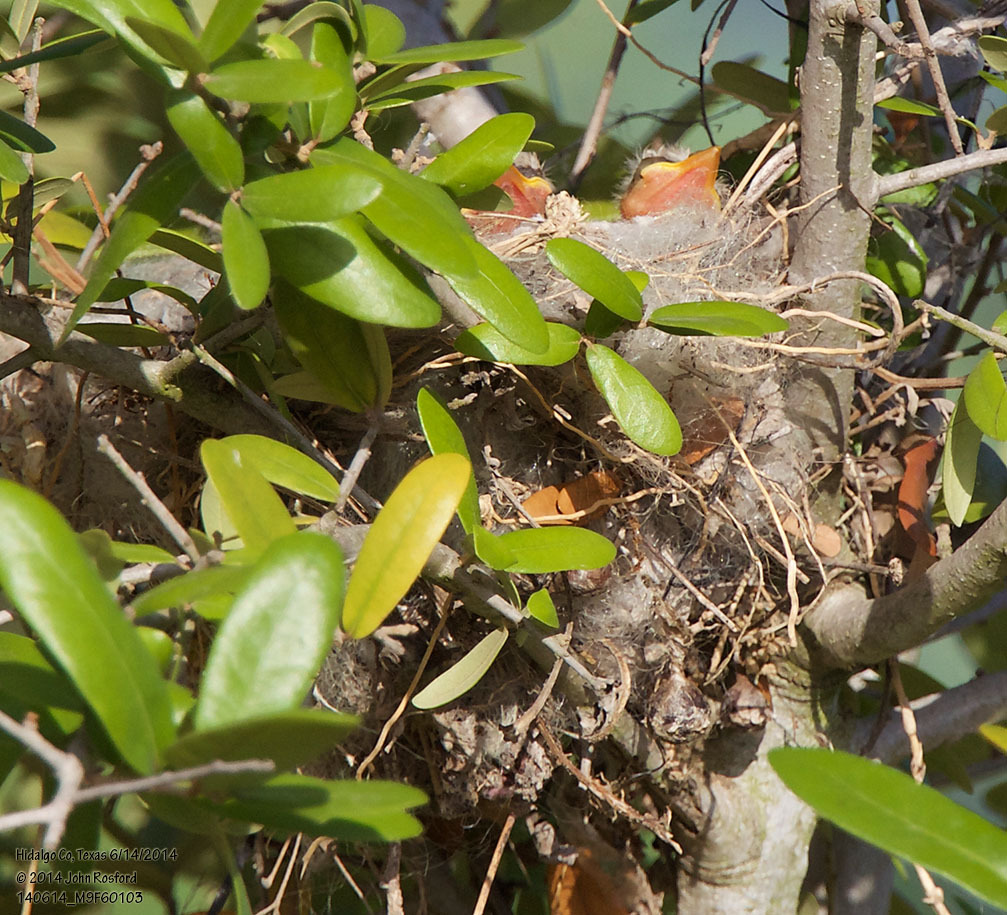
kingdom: Animalia
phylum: Chordata
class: Aves
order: Passeriformes
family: Tyrannidae
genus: Tyrannus
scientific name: Tyrannus verticalis
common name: Western kingbird
